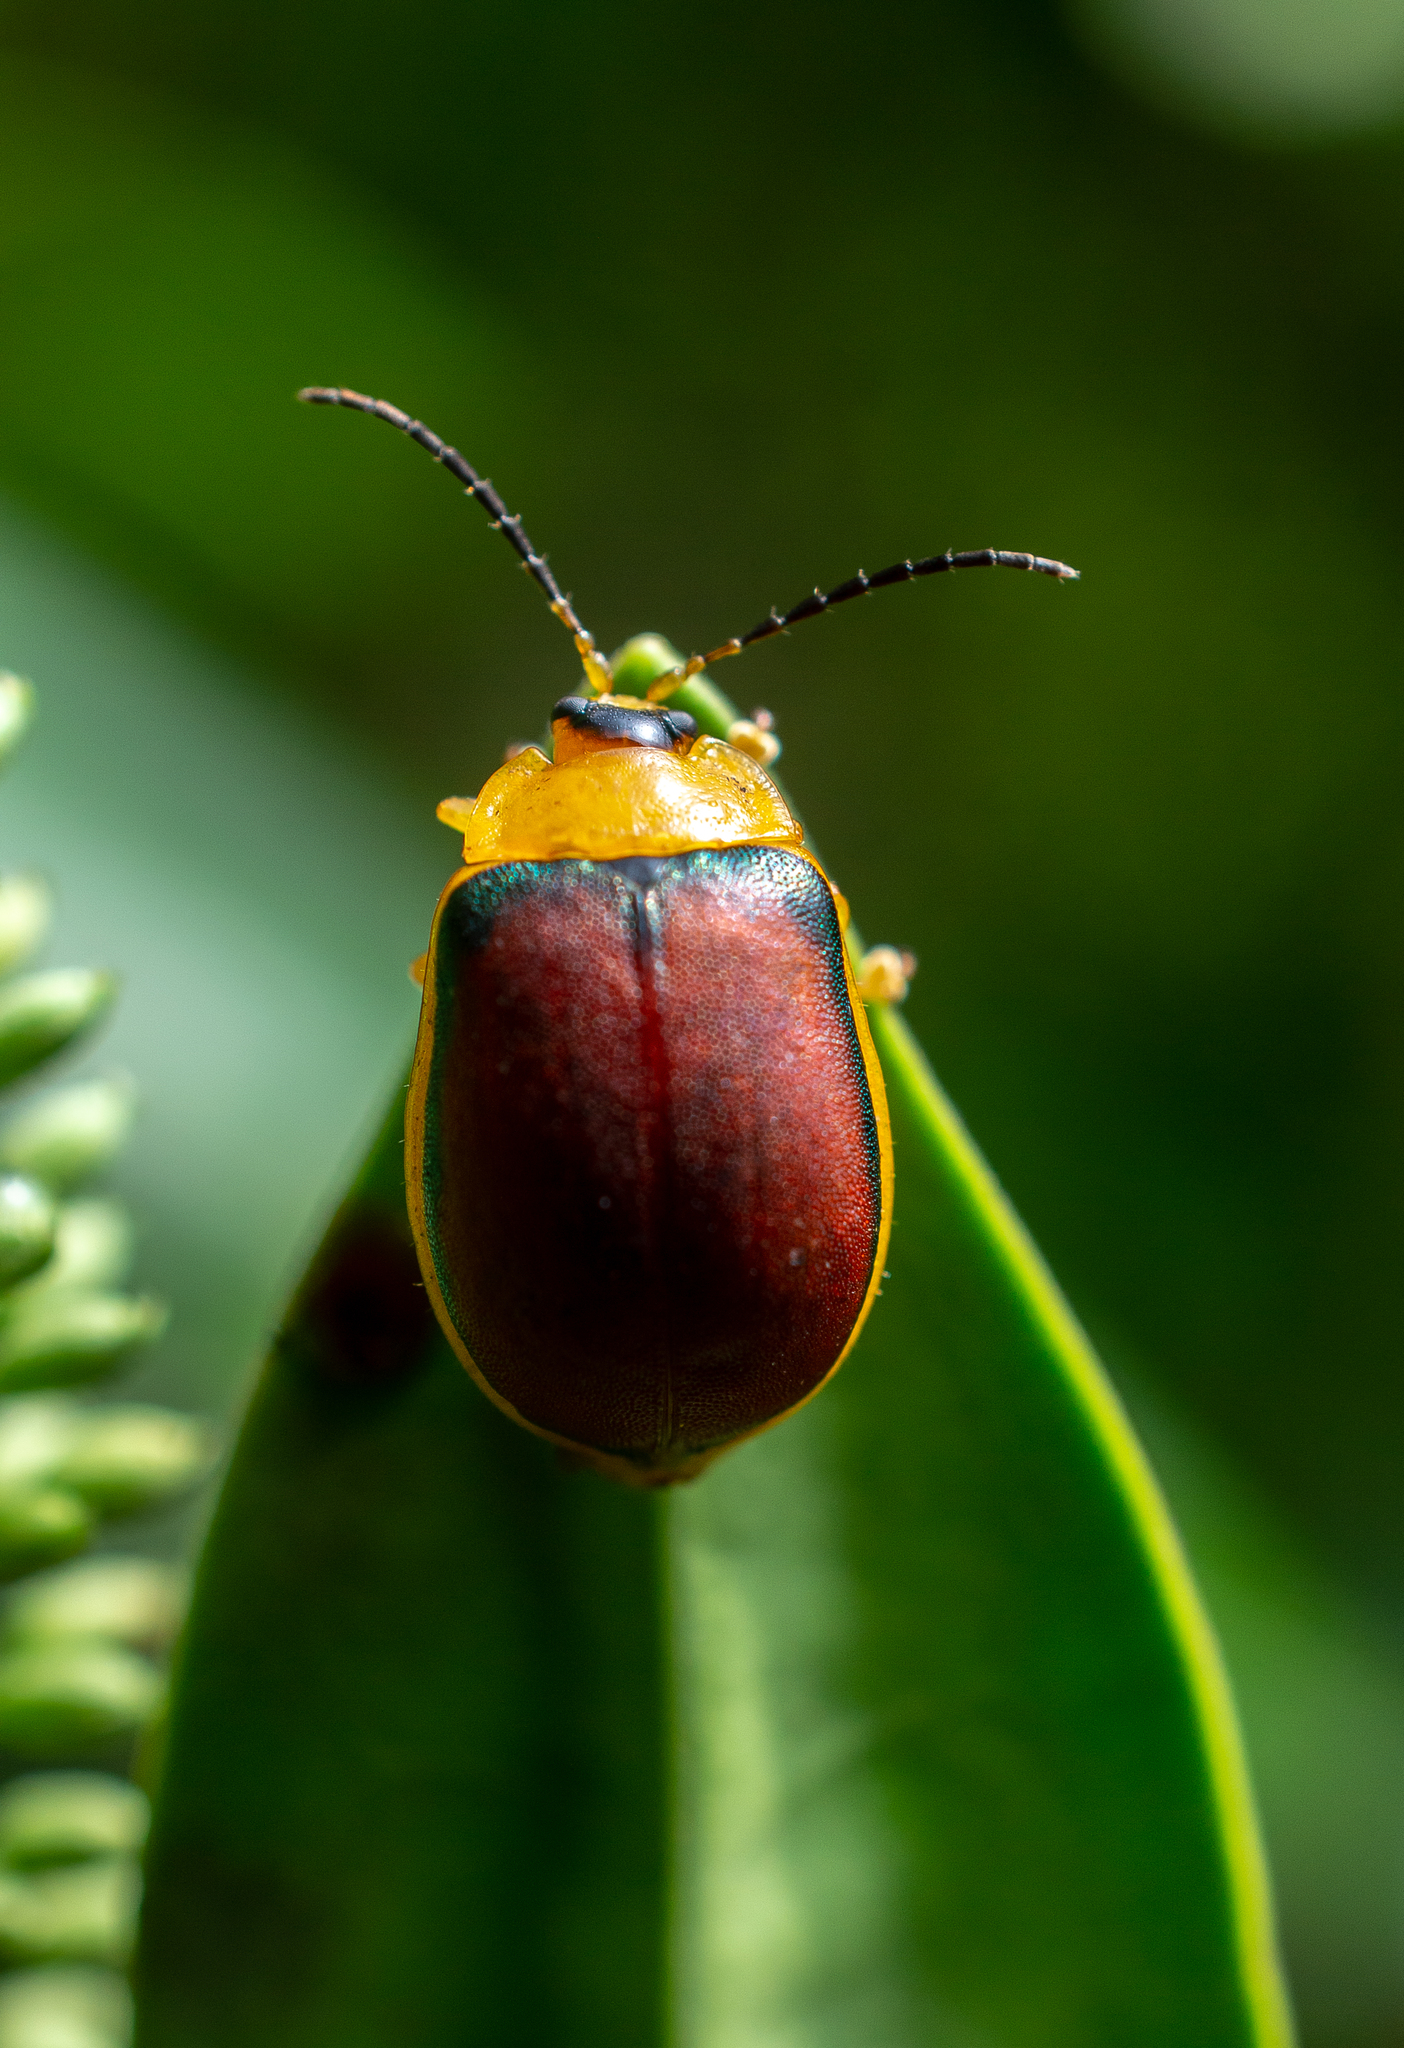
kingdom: Animalia
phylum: Arthropoda
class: Insecta
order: Coleoptera
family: Chrysomelidae
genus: Paranaita
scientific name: Paranaita
